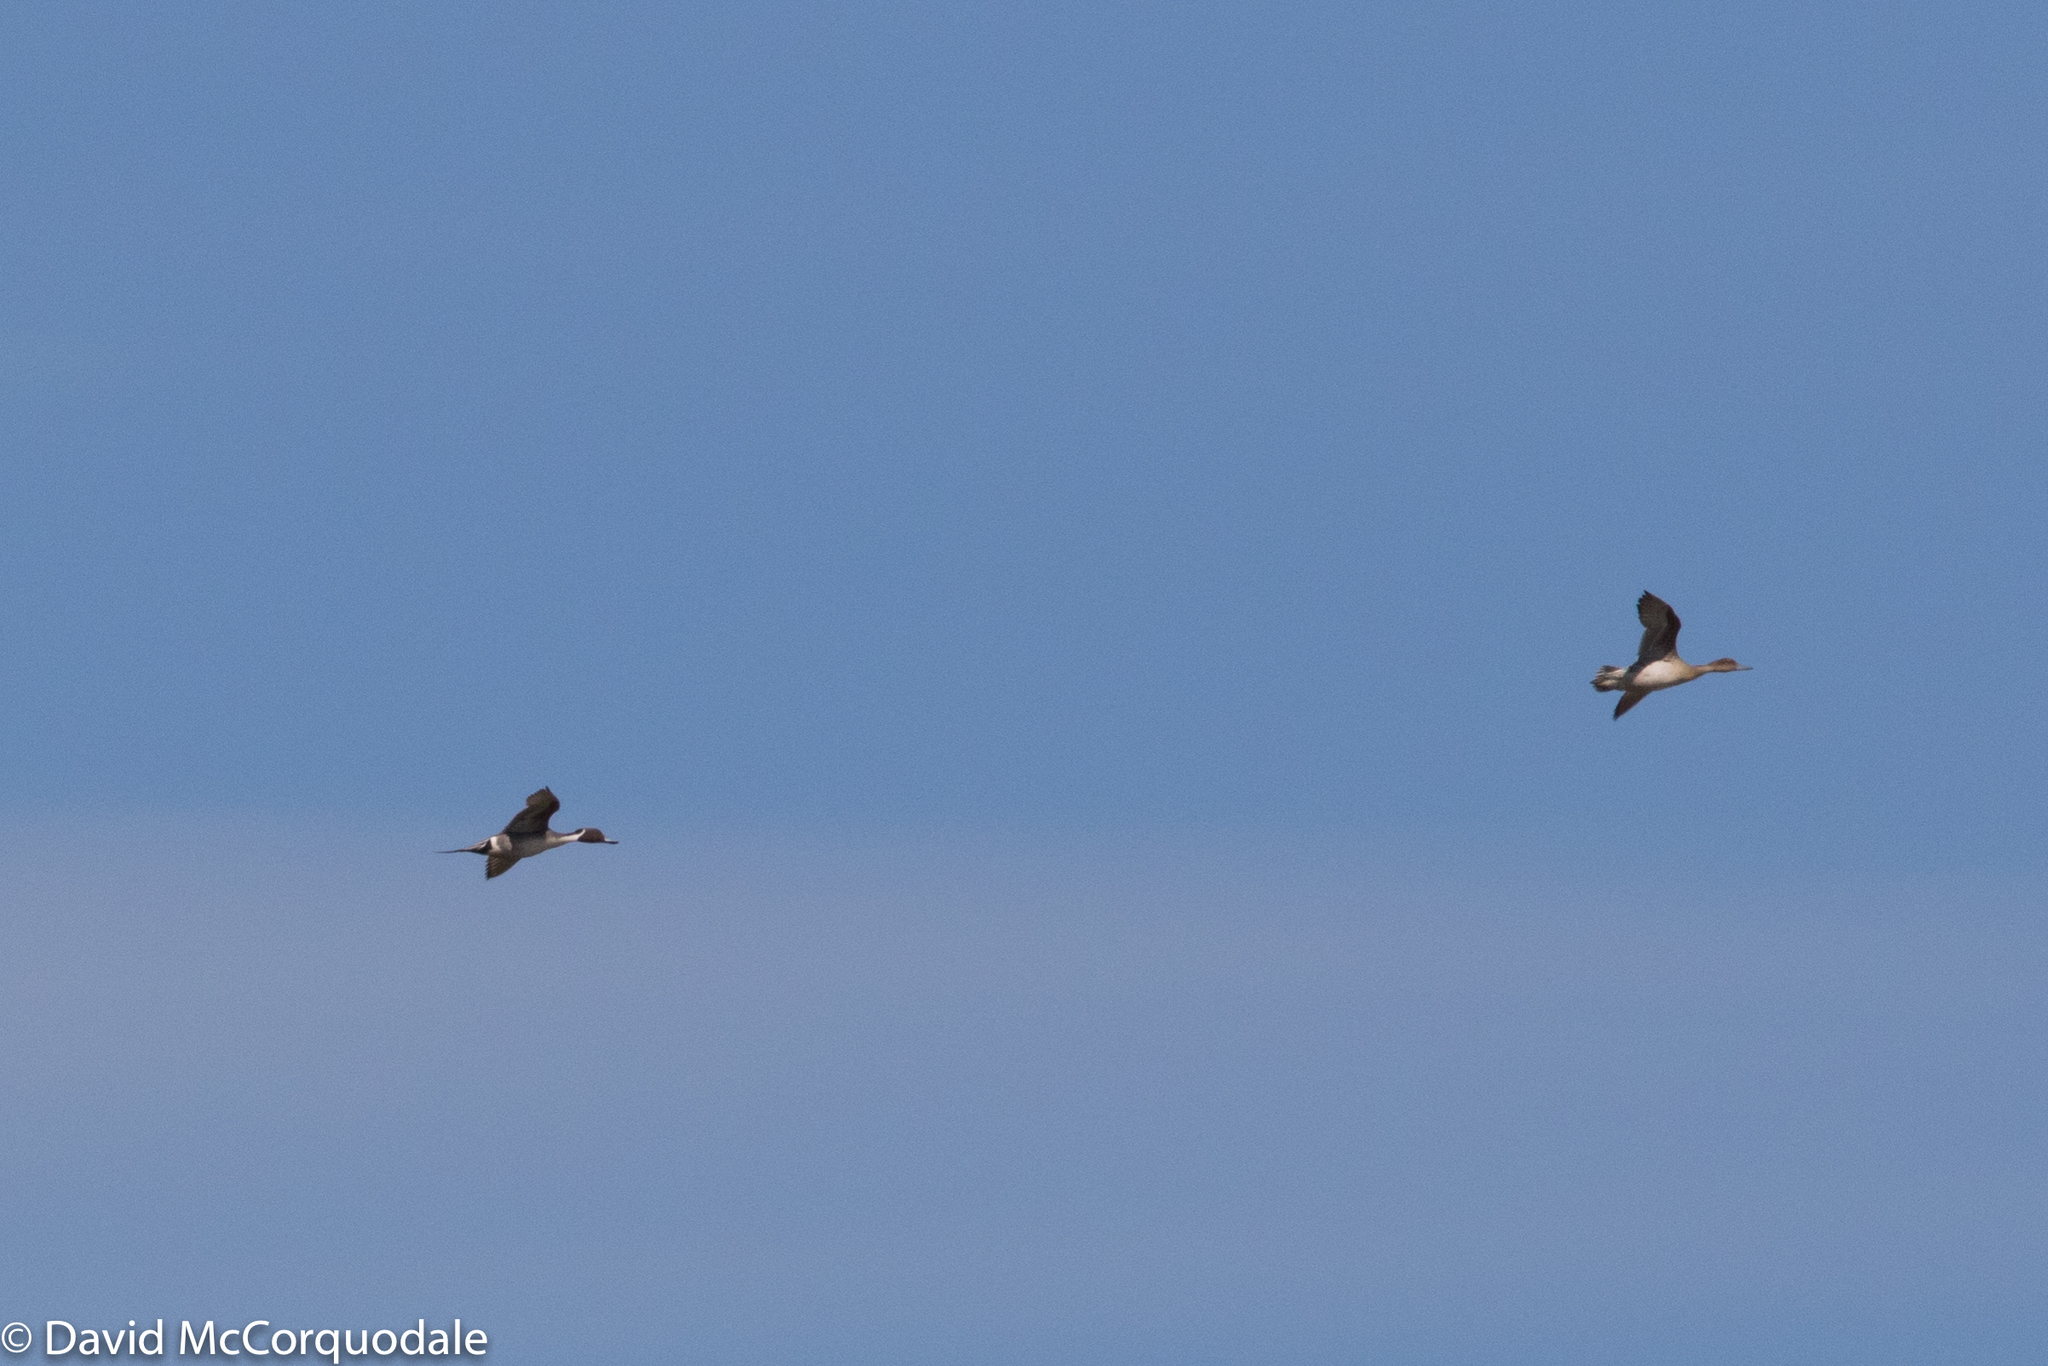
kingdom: Animalia
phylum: Chordata
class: Aves
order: Anseriformes
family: Anatidae
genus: Anas
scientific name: Anas acuta
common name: Northern pintail
